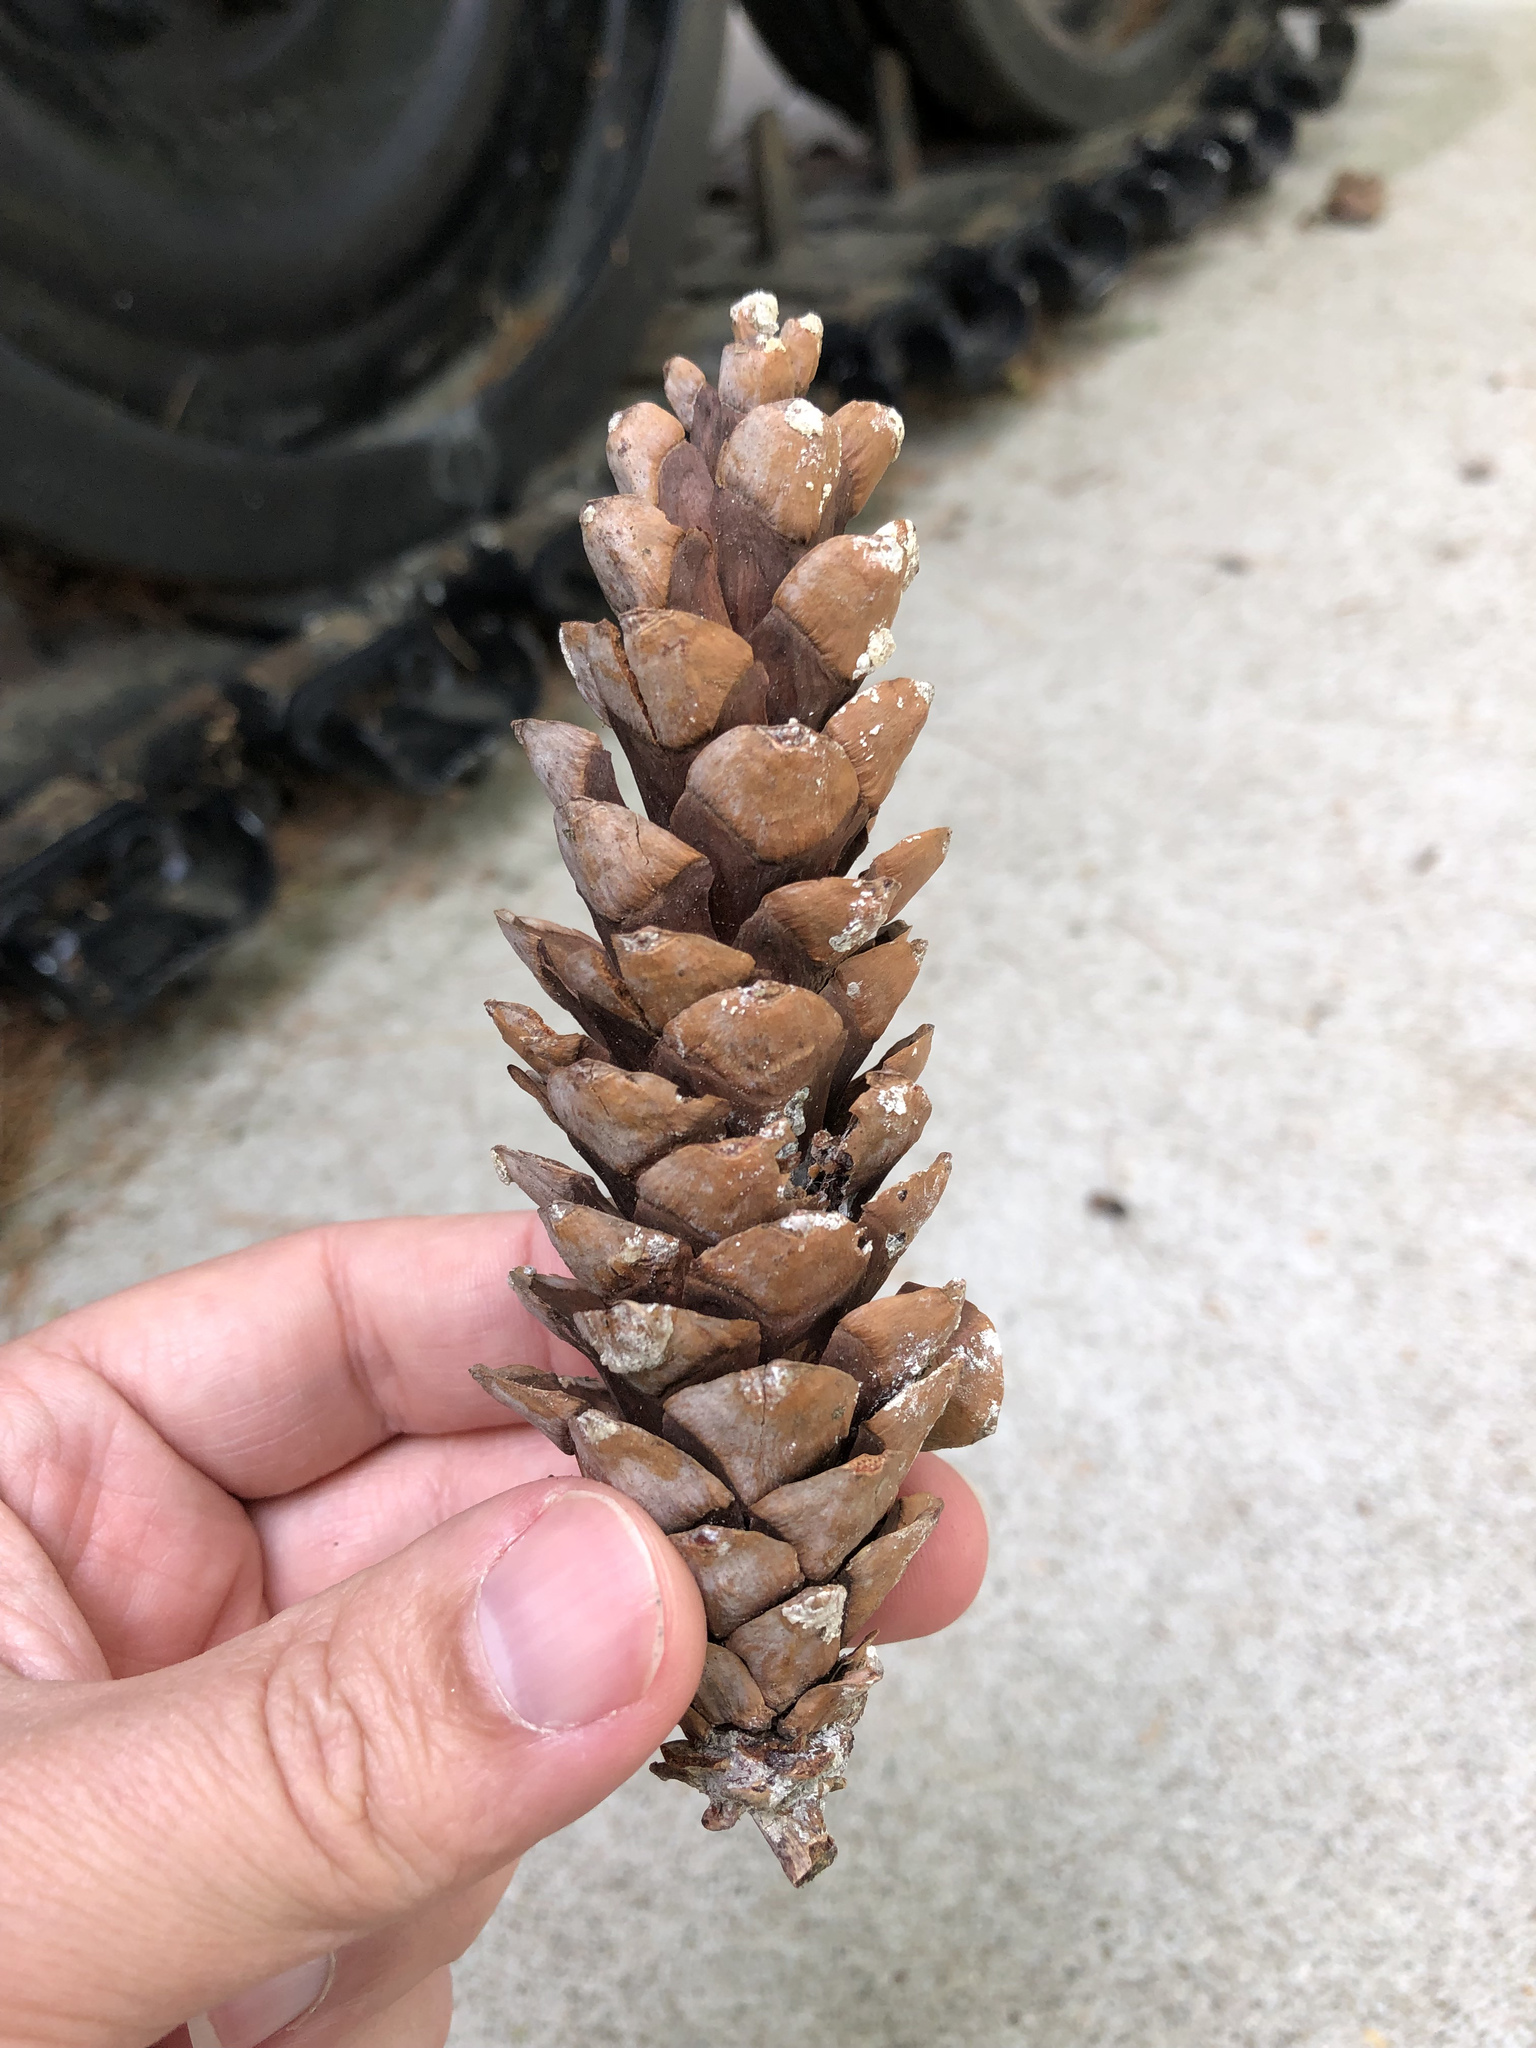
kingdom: Plantae
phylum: Tracheophyta
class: Pinopsida
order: Pinales
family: Pinaceae
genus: Pinus
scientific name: Pinus strobus
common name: Weymouth pine
